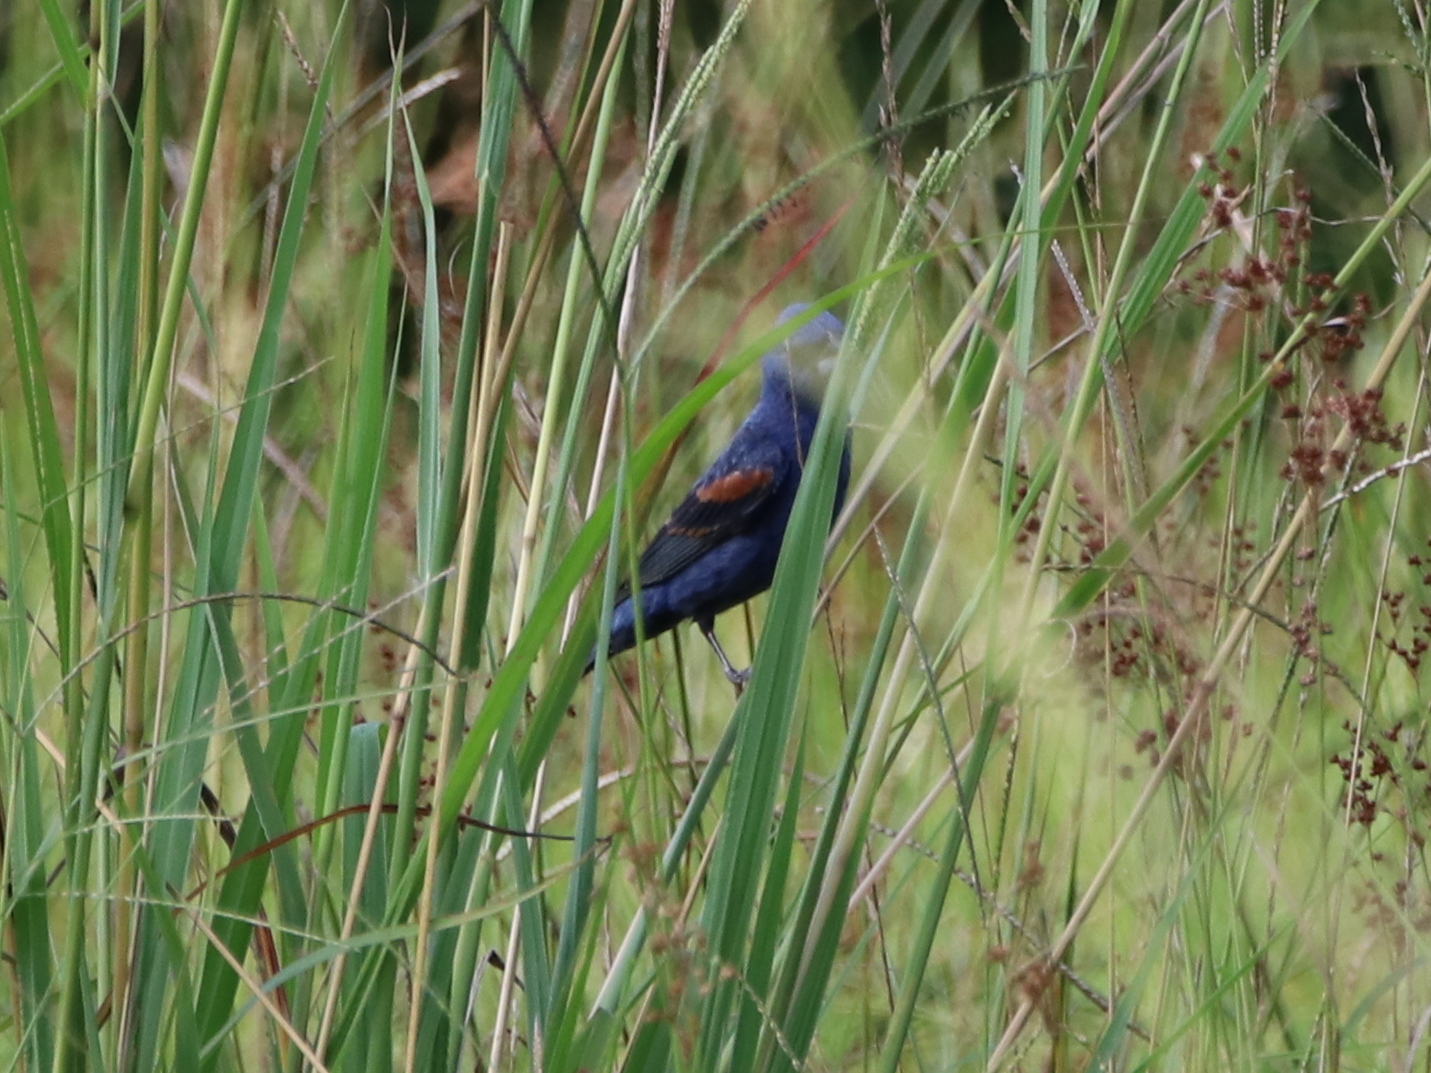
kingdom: Animalia
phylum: Chordata
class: Aves
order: Passeriformes
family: Cardinalidae
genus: Passerina
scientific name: Passerina caerulea
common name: Blue grosbeak
